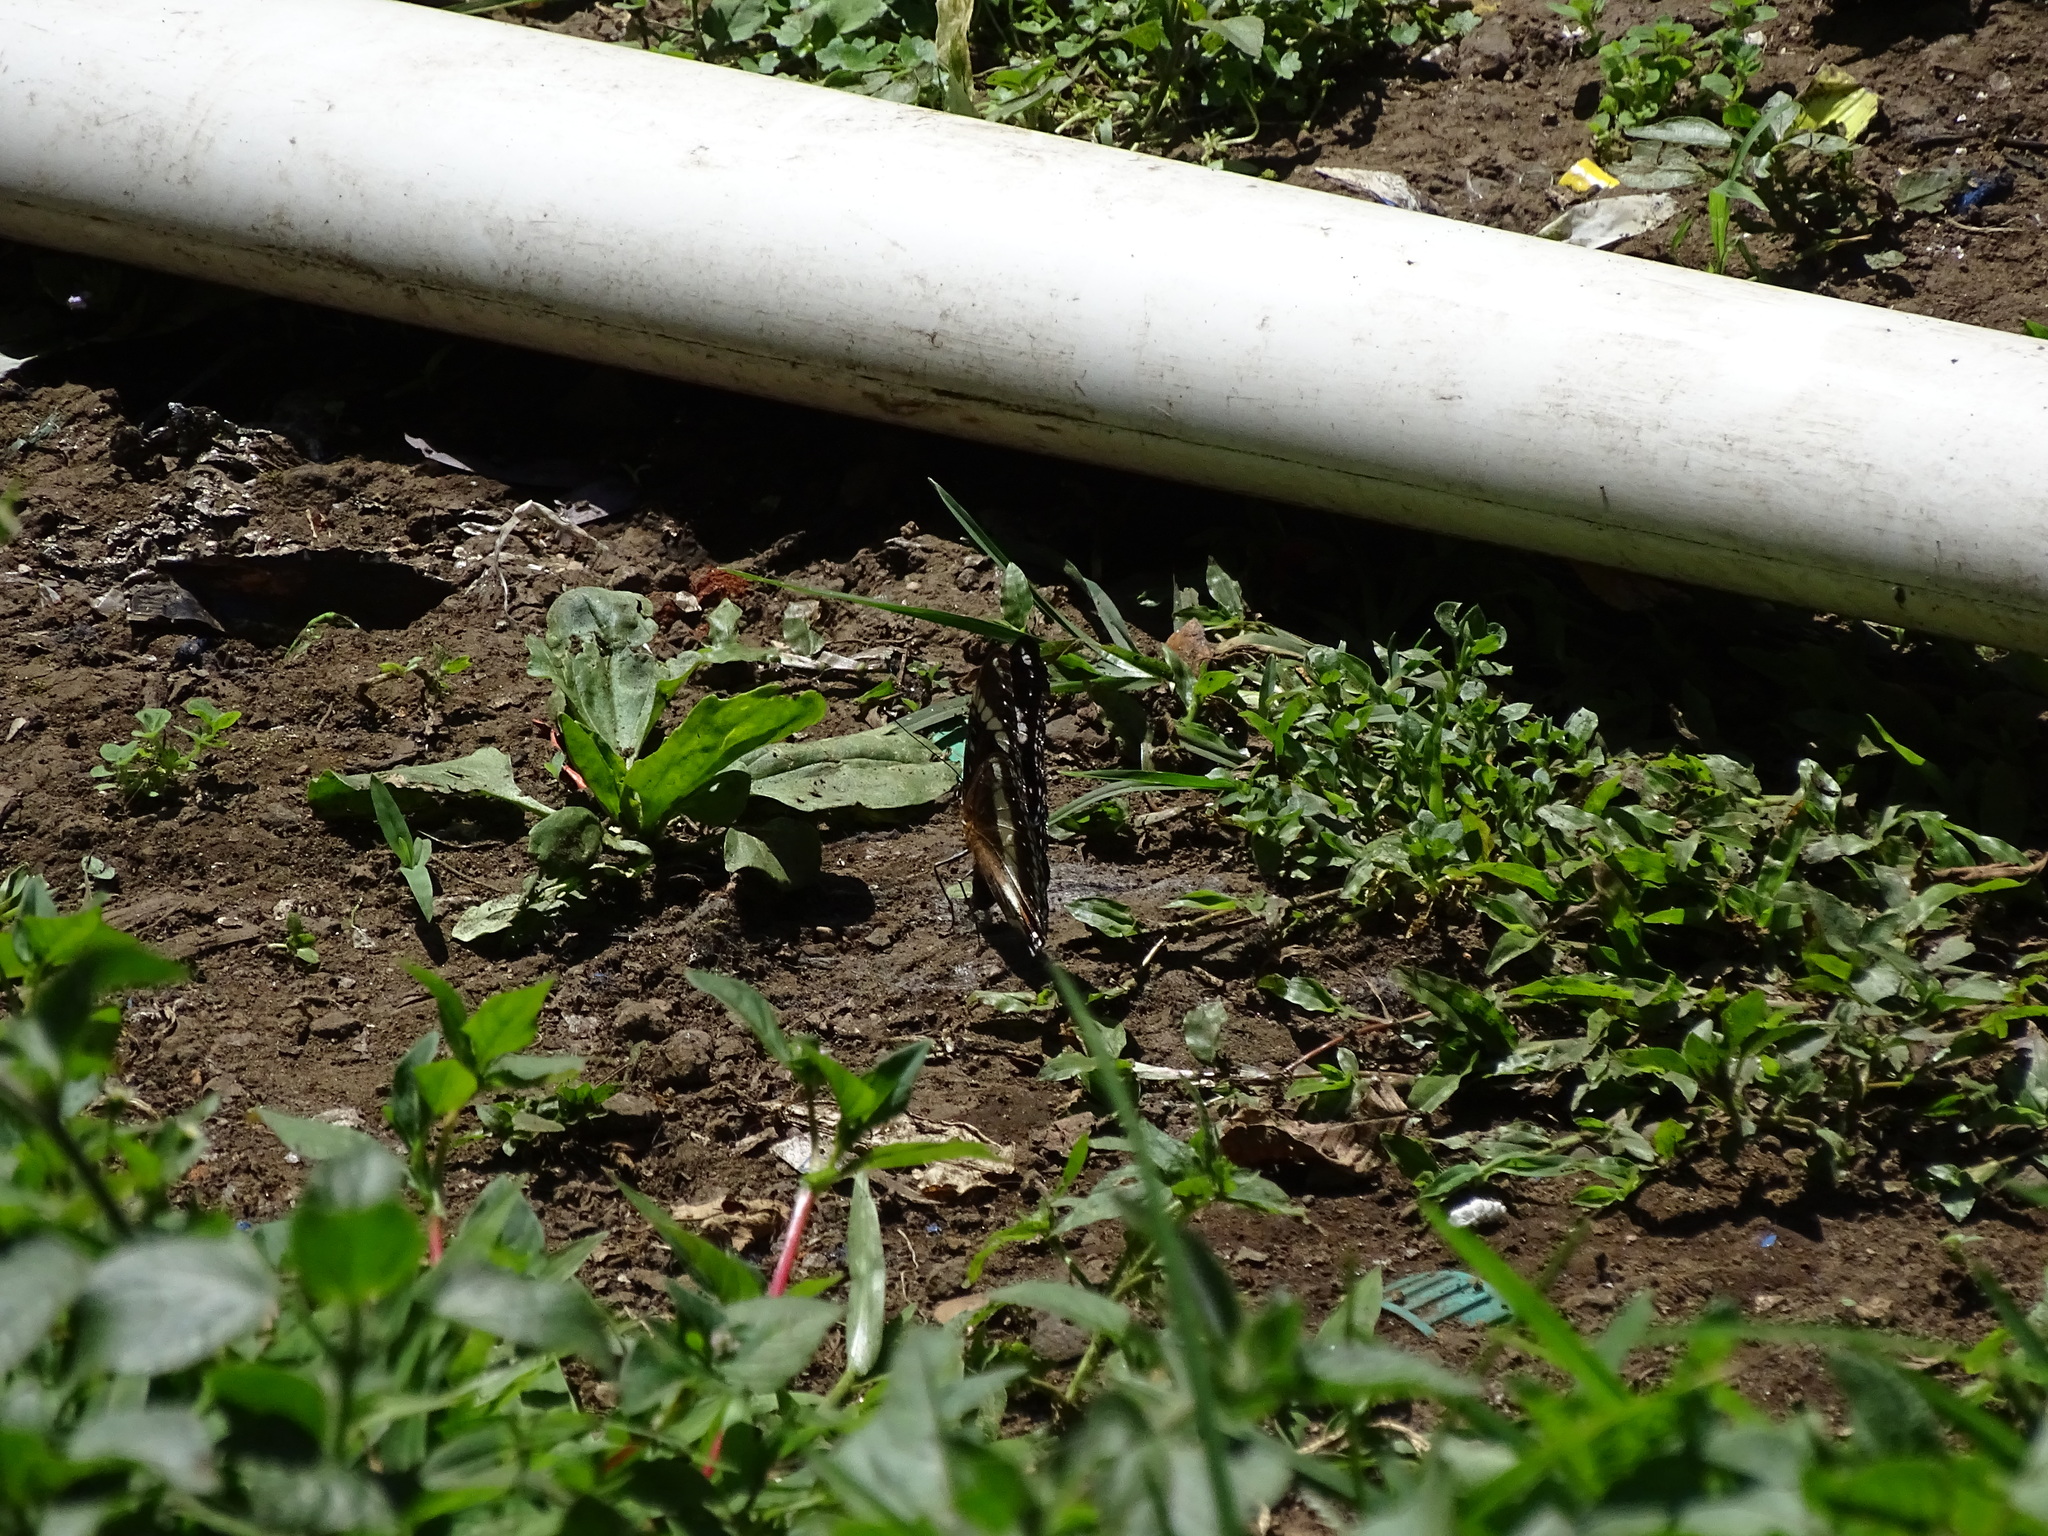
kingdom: Animalia
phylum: Arthropoda
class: Insecta
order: Lepidoptera
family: Nymphalidae
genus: Hypolimnas
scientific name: Hypolimnas bolina
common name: Great eggfly
